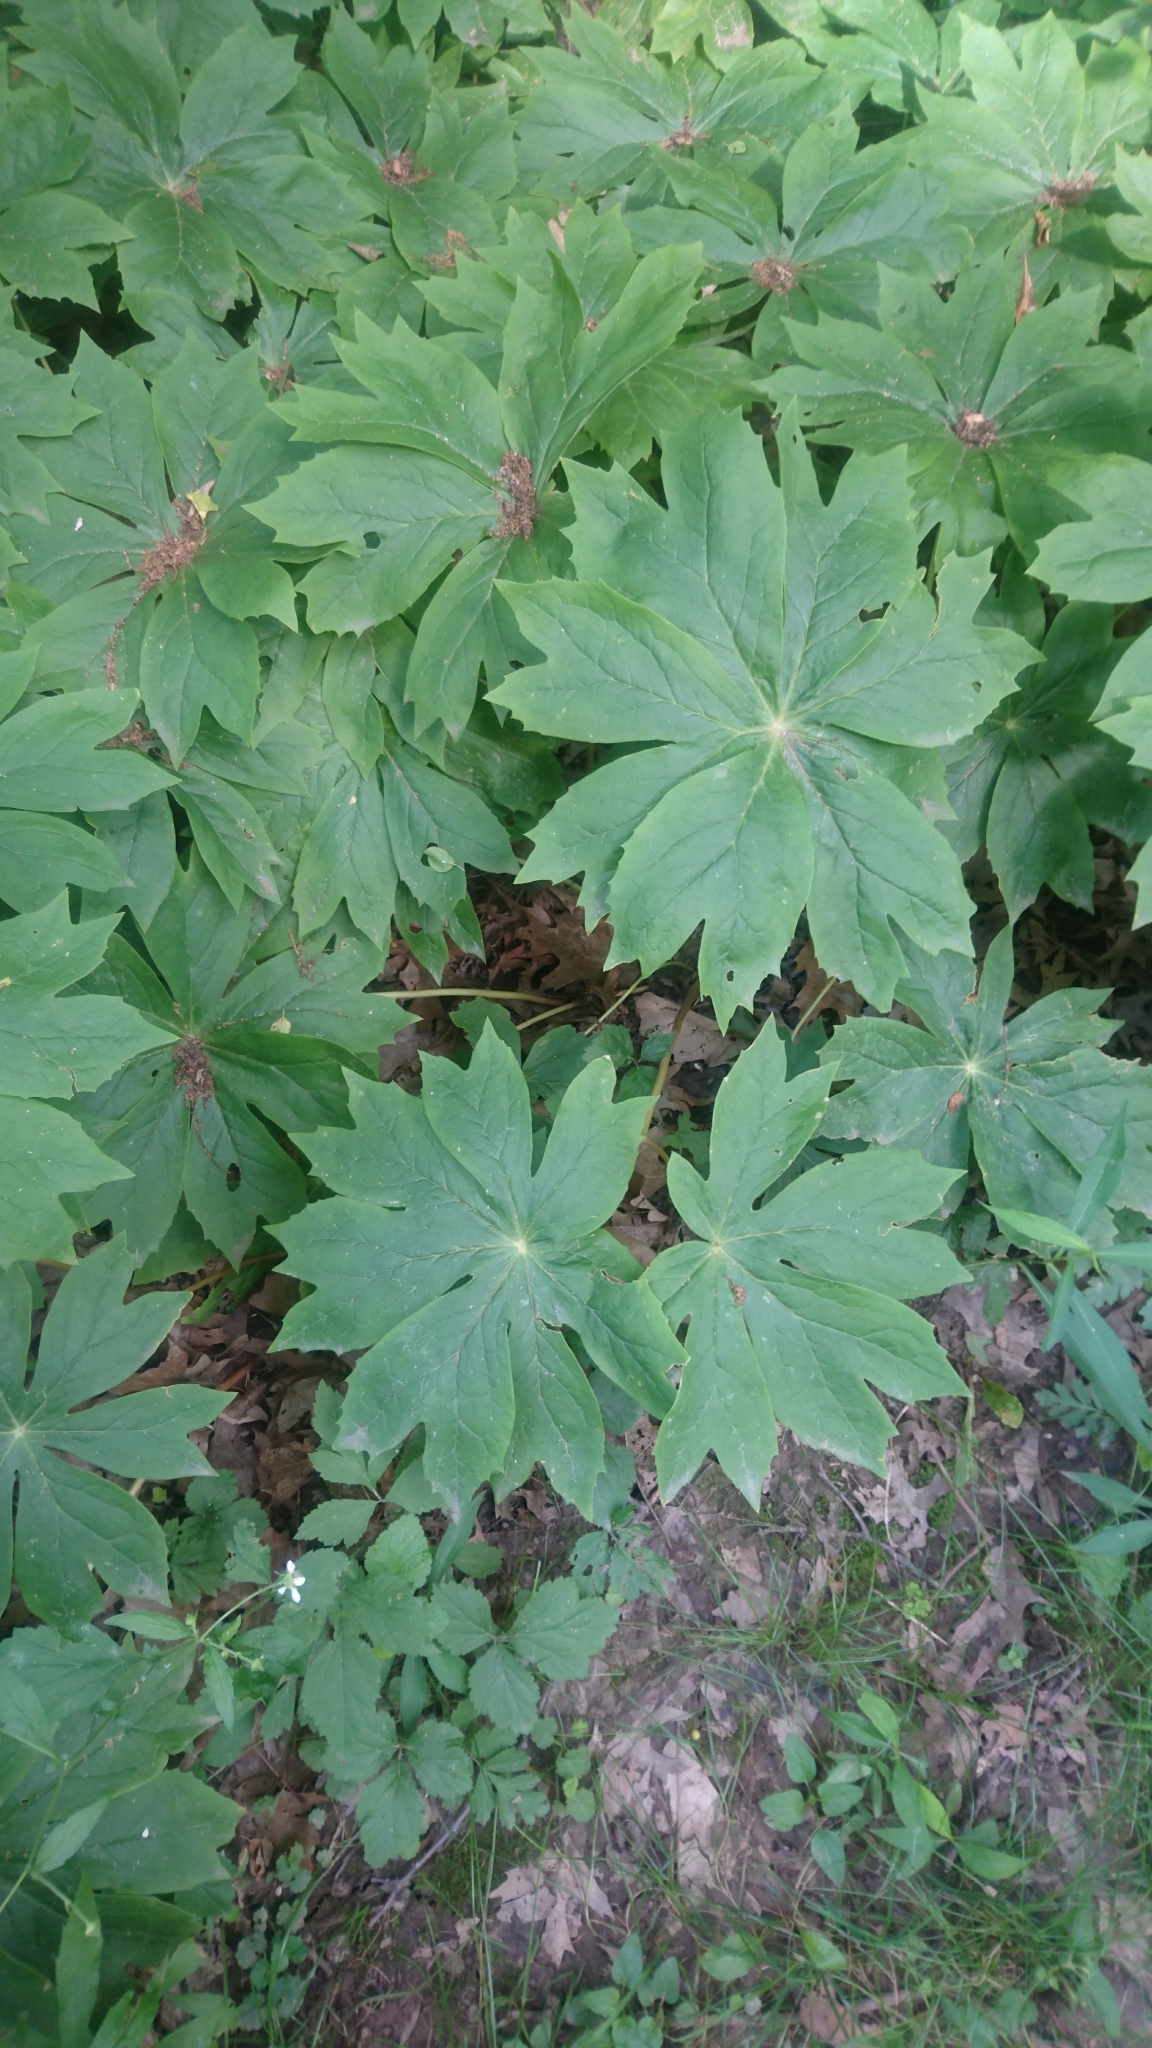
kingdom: Plantae
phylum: Tracheophyta
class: Magnoliopsida
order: Ranunculales
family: Berberidaceae
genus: Podophyllum
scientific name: Podophyllum peltatum
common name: Wild mandrake
